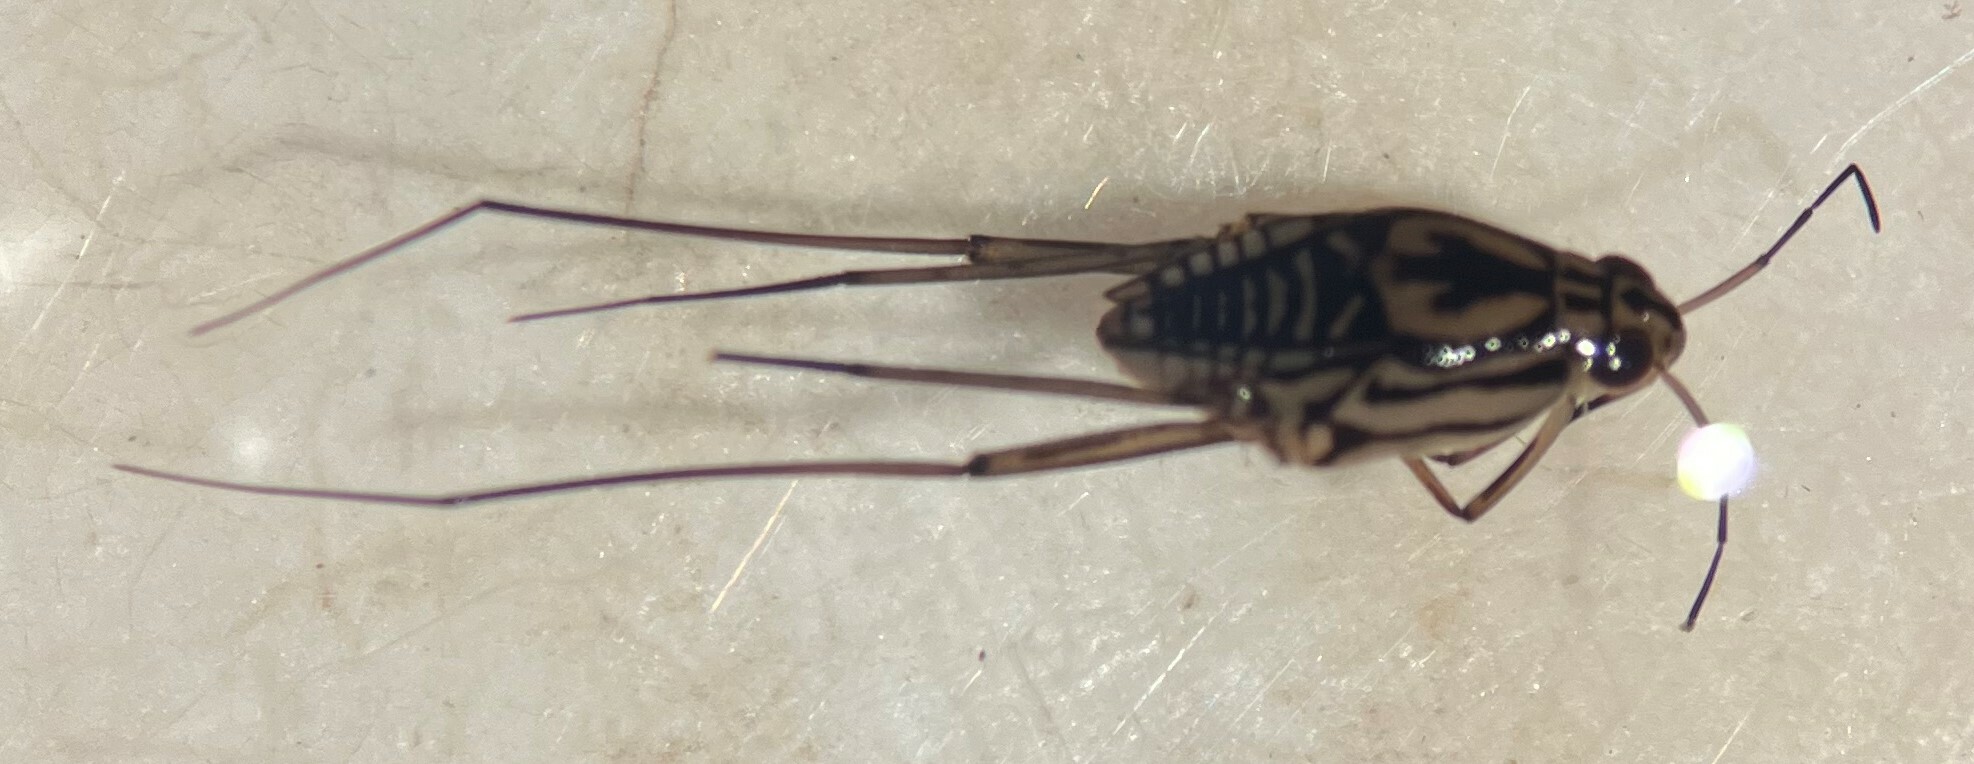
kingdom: Animalia
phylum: Arthropoda
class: Insecta
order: Hemiptera
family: Gerridae
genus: Trepobates
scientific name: Trepobates carri
